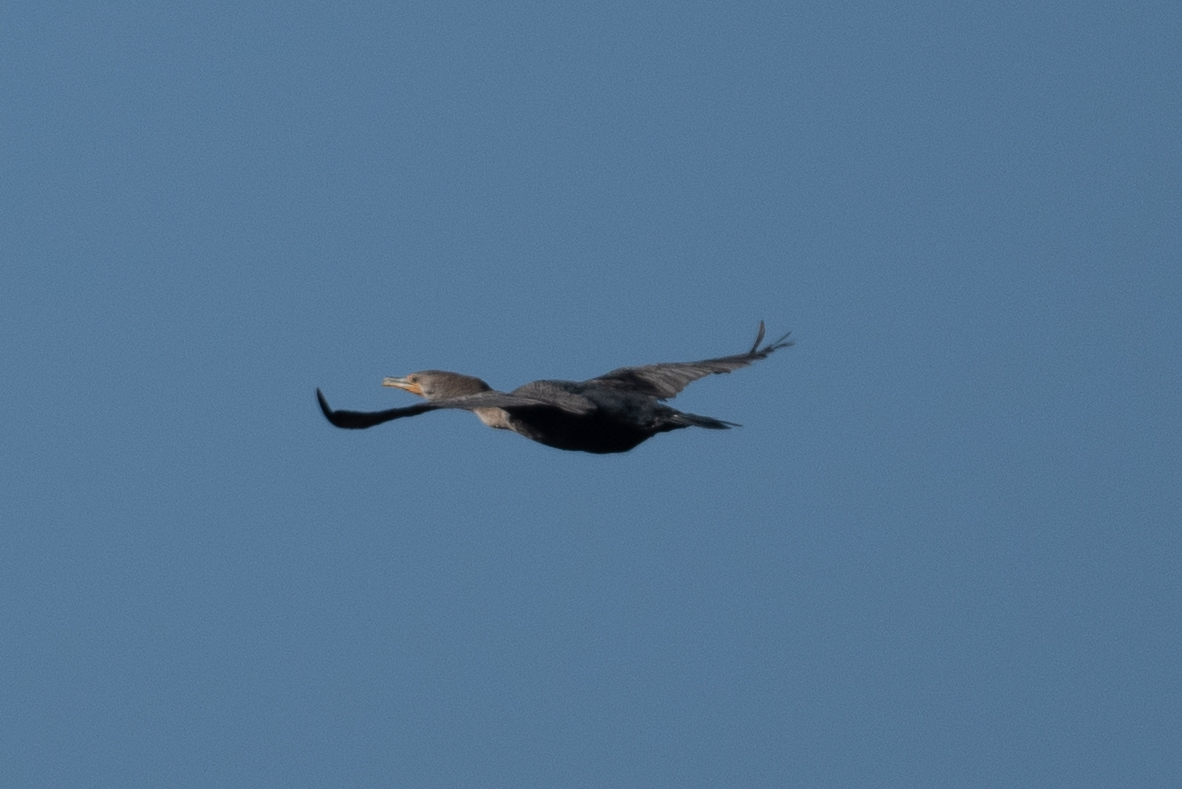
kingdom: Animalia
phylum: Chordata
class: Aves
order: Suliformes
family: Phalacrocoracidae
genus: Phalacrocorax
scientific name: Phalacrocorax auritus
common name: Double-crested cormorant
